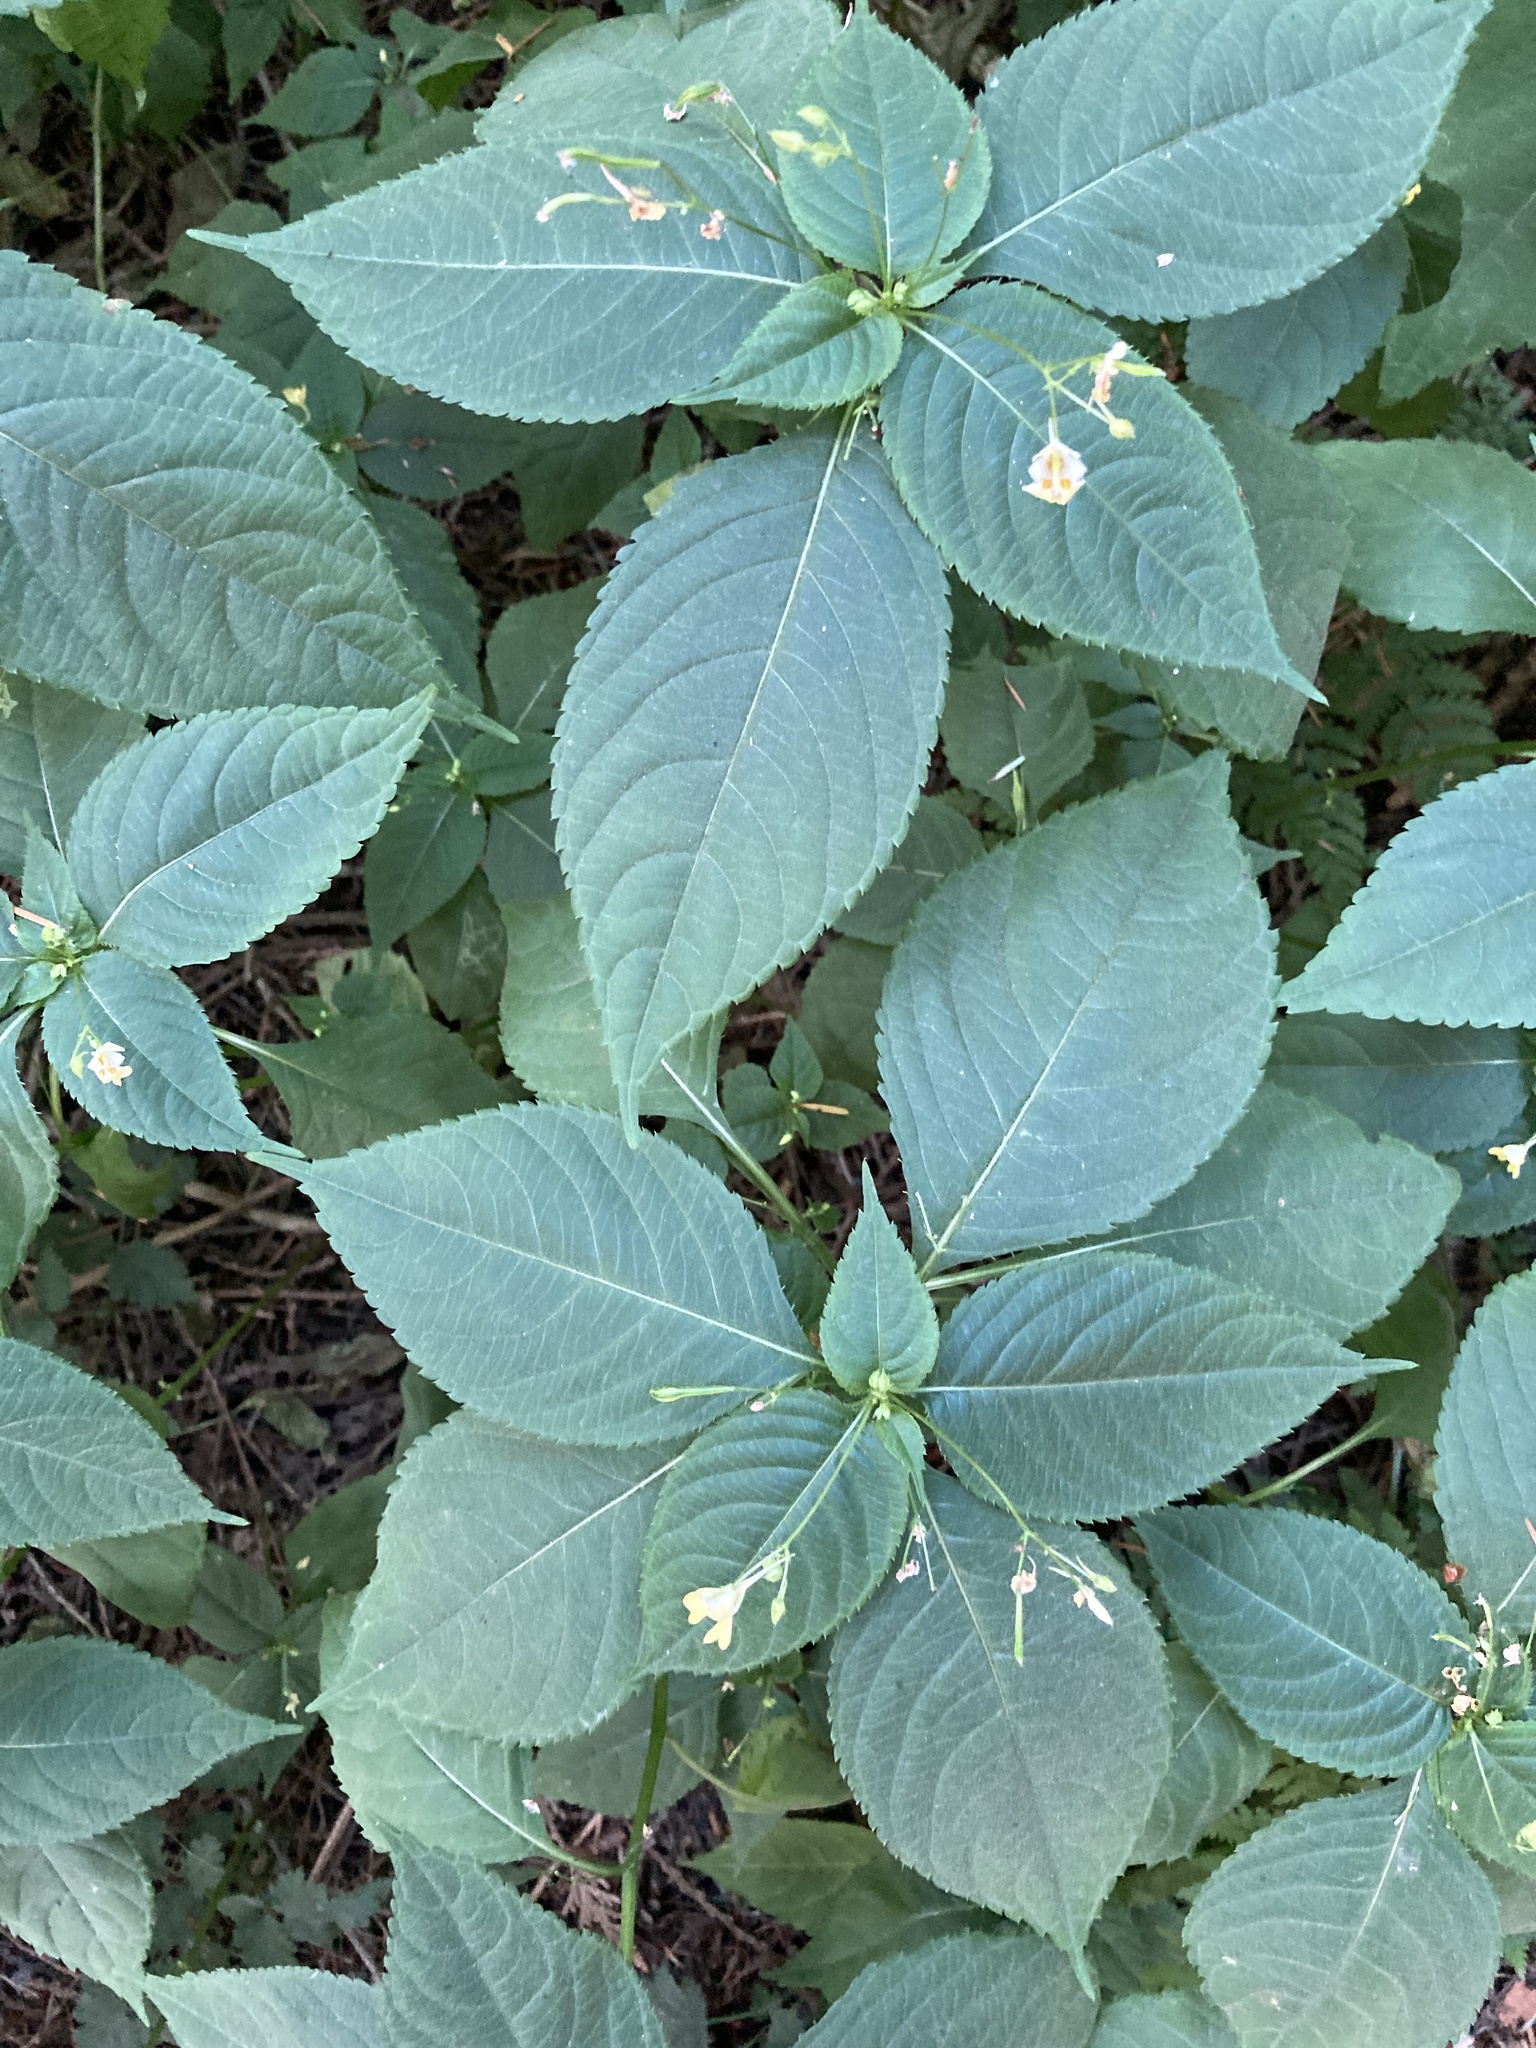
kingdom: Plantae
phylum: Tracheophyta
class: Magnoliopsida
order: Ericales
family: Balsaminaceae
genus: Impatiens
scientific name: Impatiens parviflora
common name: Small balsam
